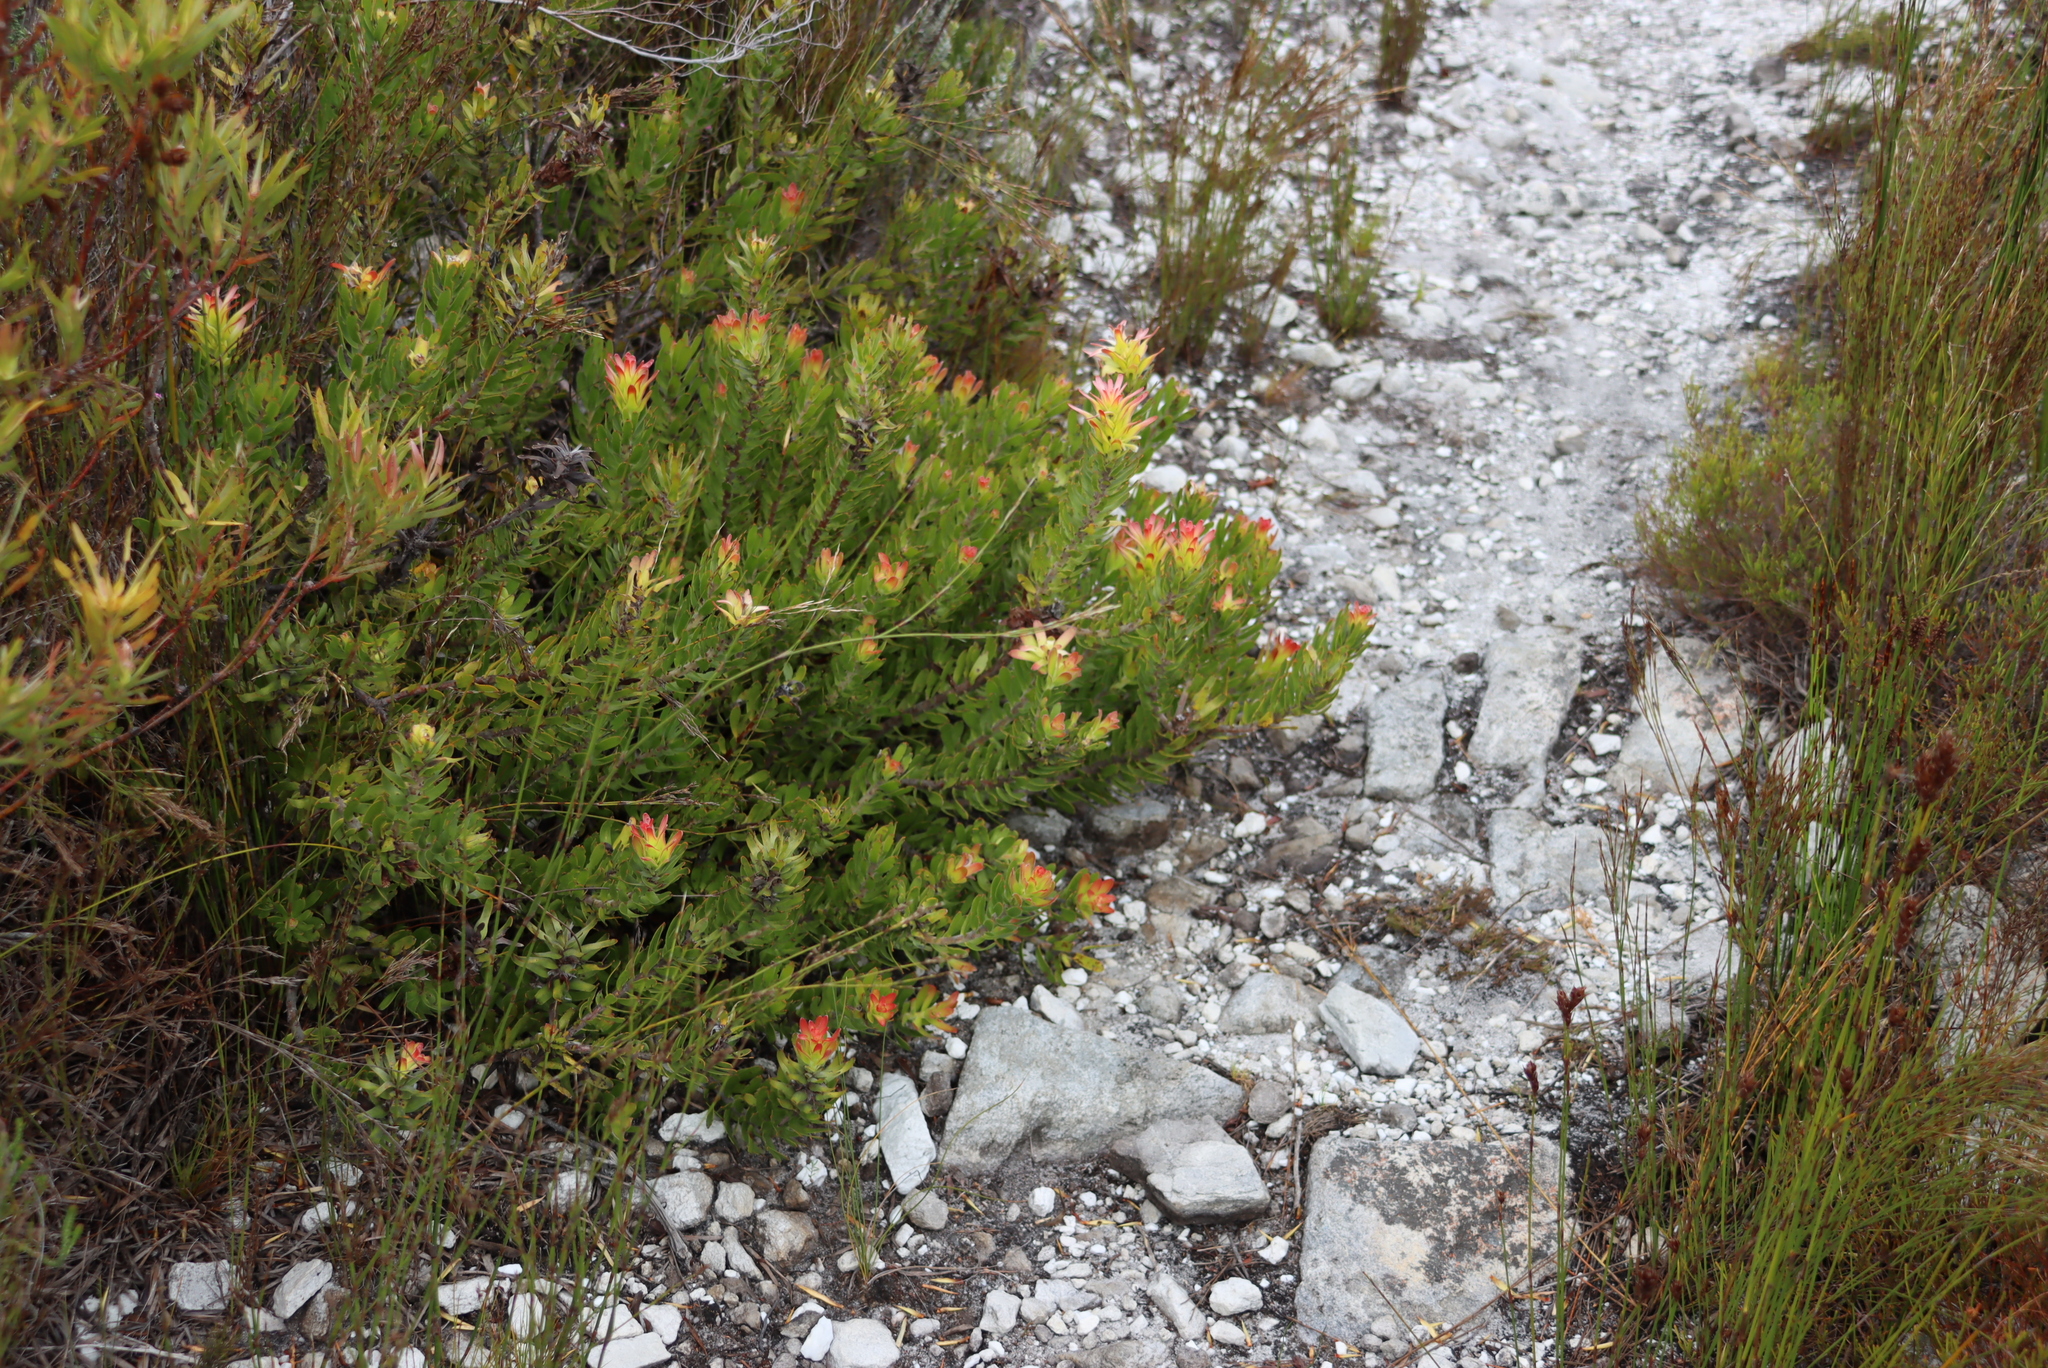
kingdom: Plantae
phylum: Tracheophyta
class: Magnoliopsida
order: Proteales
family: Proteaceae
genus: Mimetes
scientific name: Mimetes cucullatus
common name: Common pagoda
